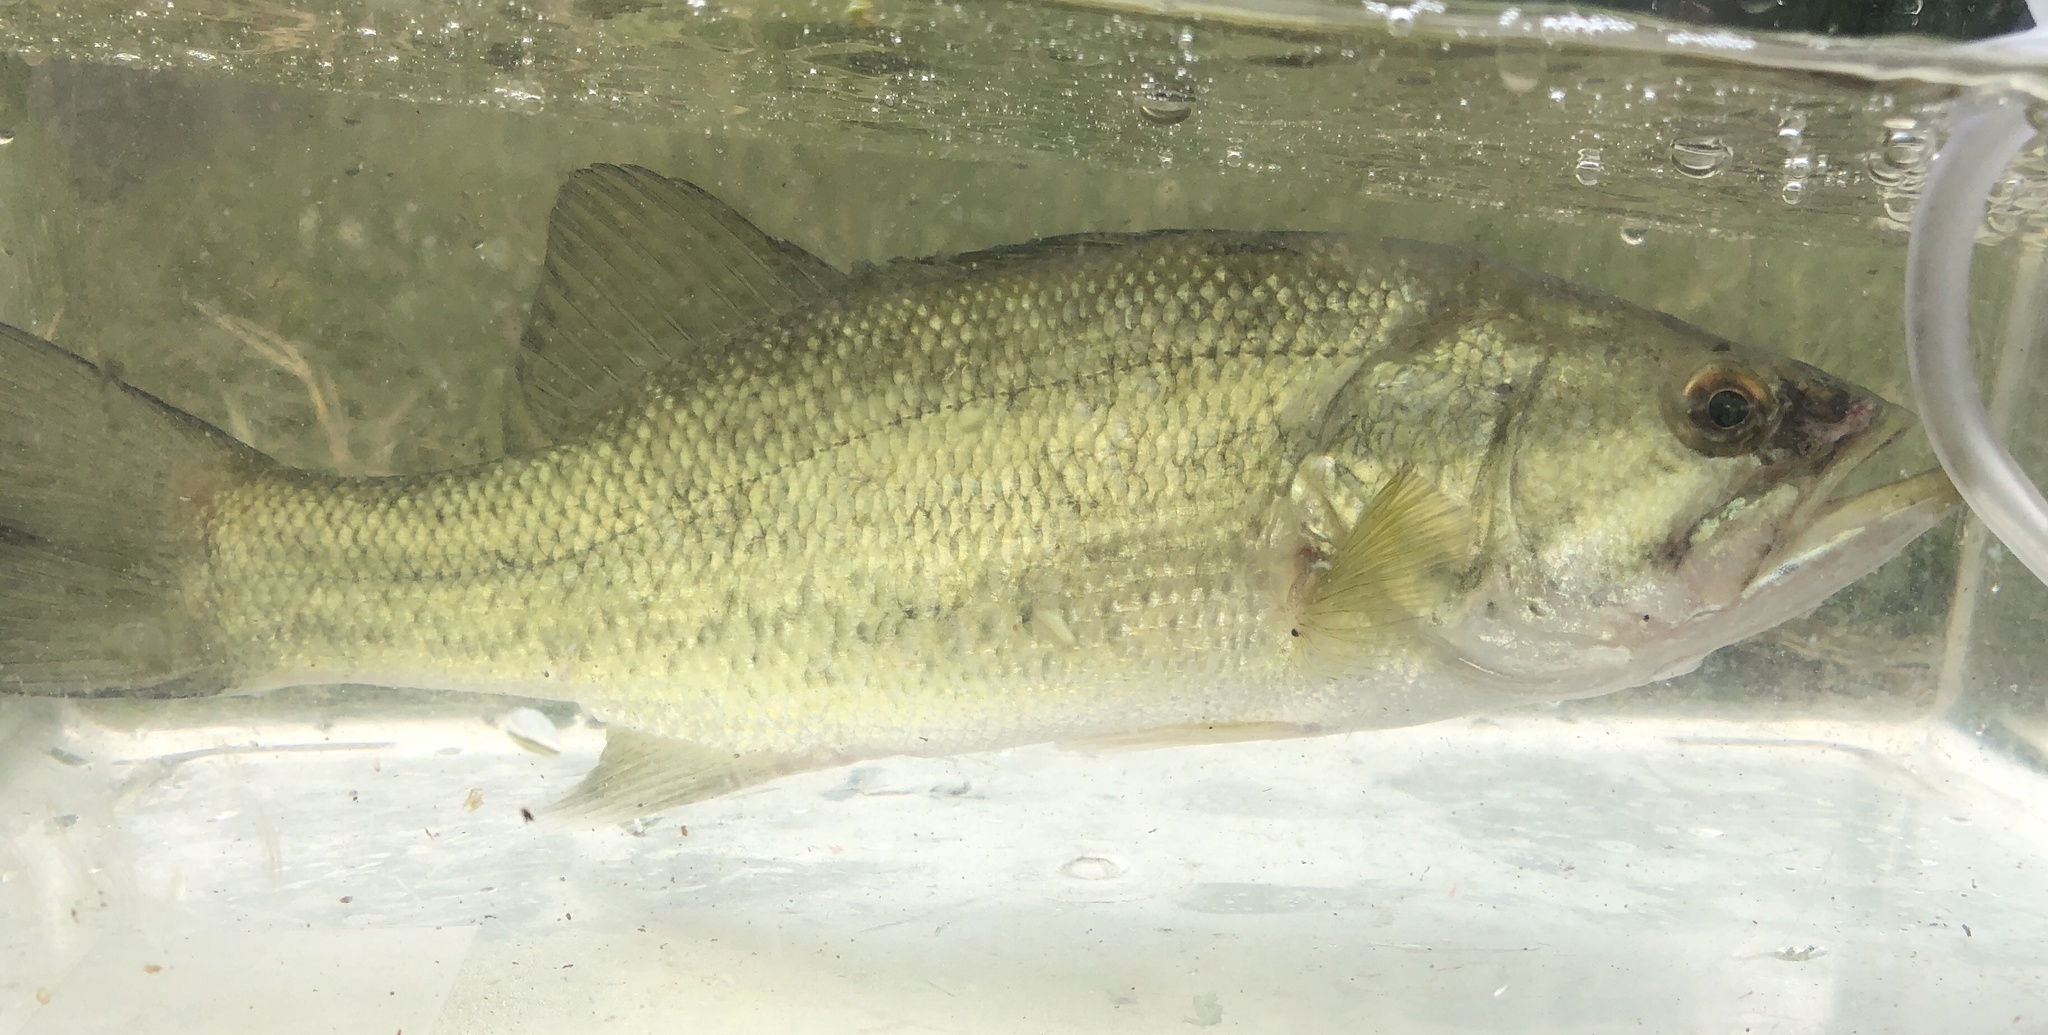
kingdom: Animalia
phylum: Chordata
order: Perciformes
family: Centrarchidae
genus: Micropterus
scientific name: Micropterus
